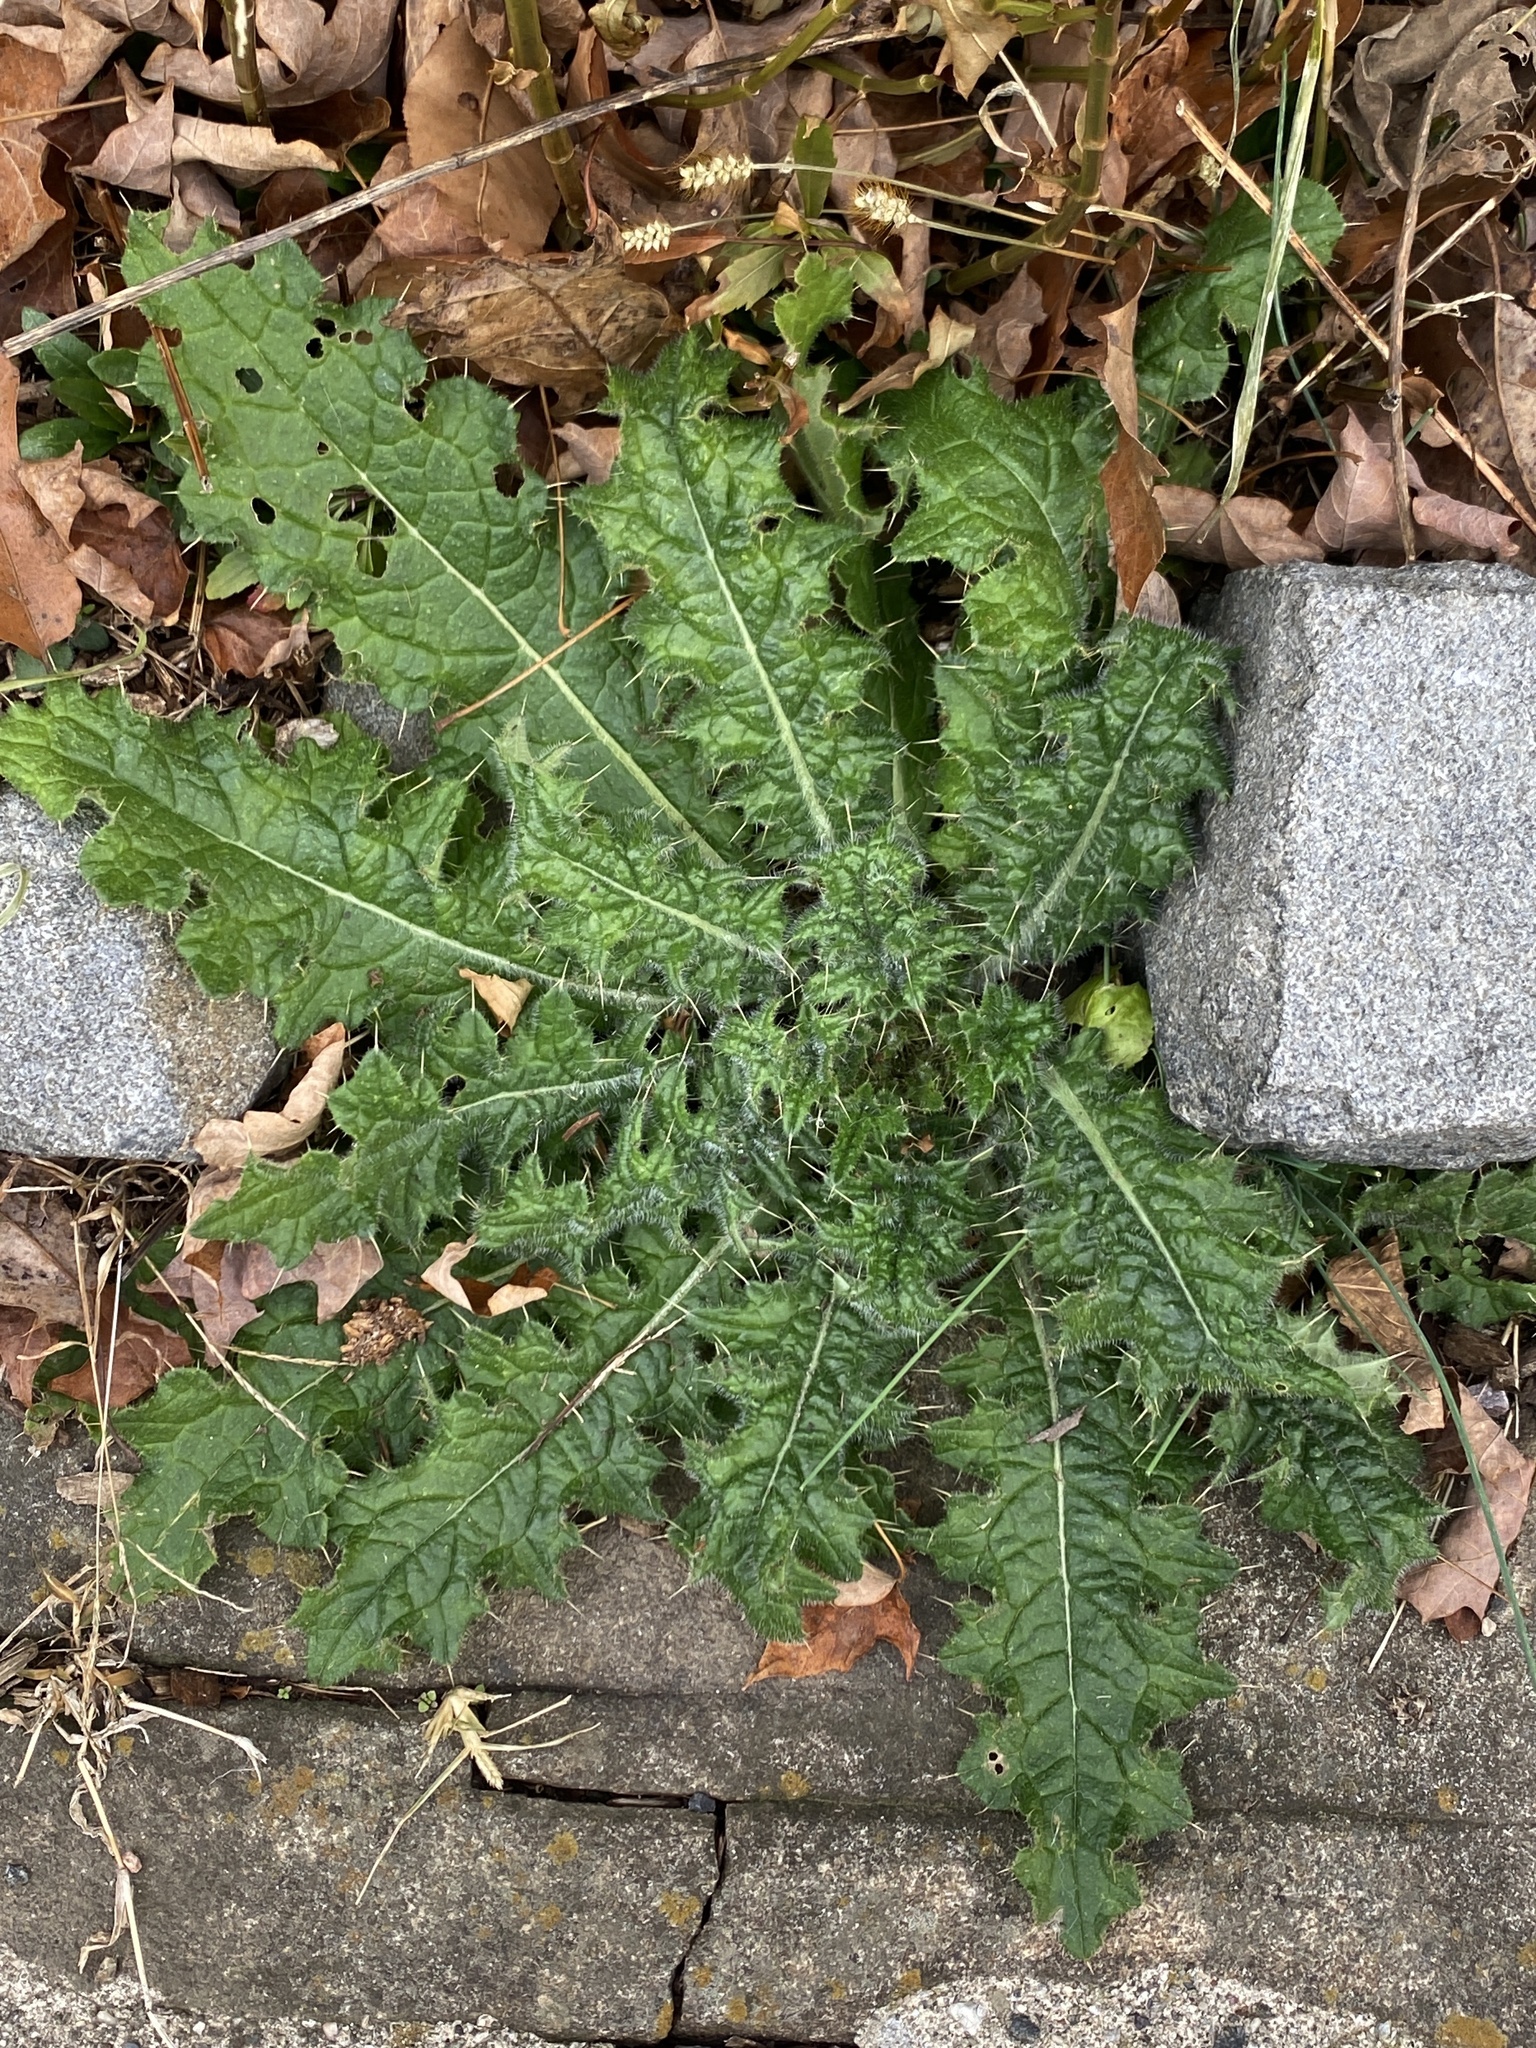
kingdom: Plantae
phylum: Tracheophyta
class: Magnoliopsida
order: Asterales
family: Asteraceae
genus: Cirsium
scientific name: Cirsium vulgare
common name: Bull thistle
